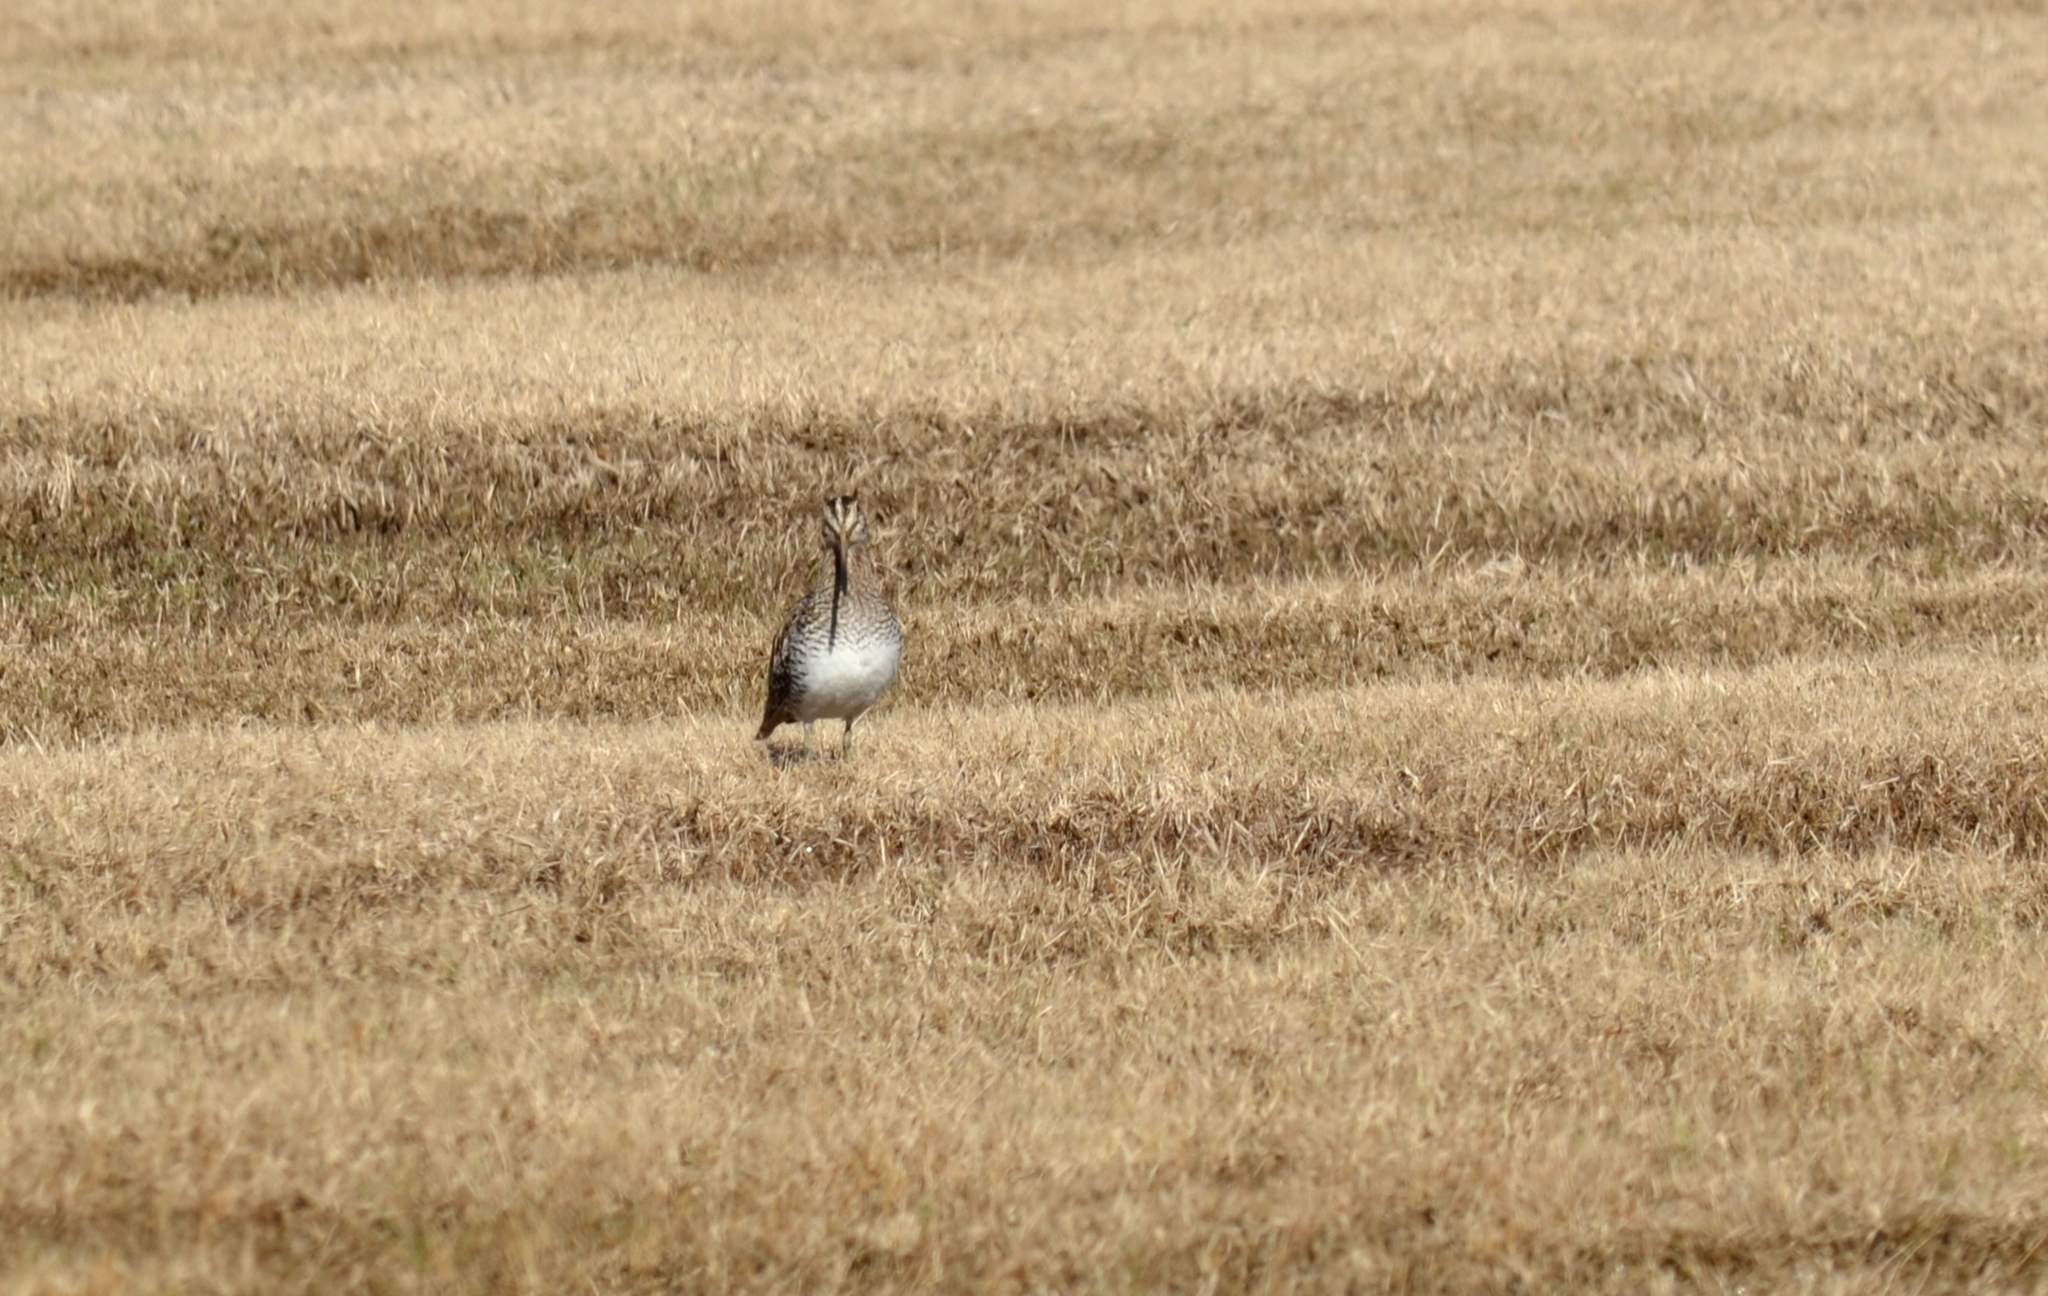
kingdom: Animalia
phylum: Chordata
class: Aves
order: Charadriiformes
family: Scolopacidae
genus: Gallinago
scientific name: Gallinago delicata
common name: Wilson's snipe
